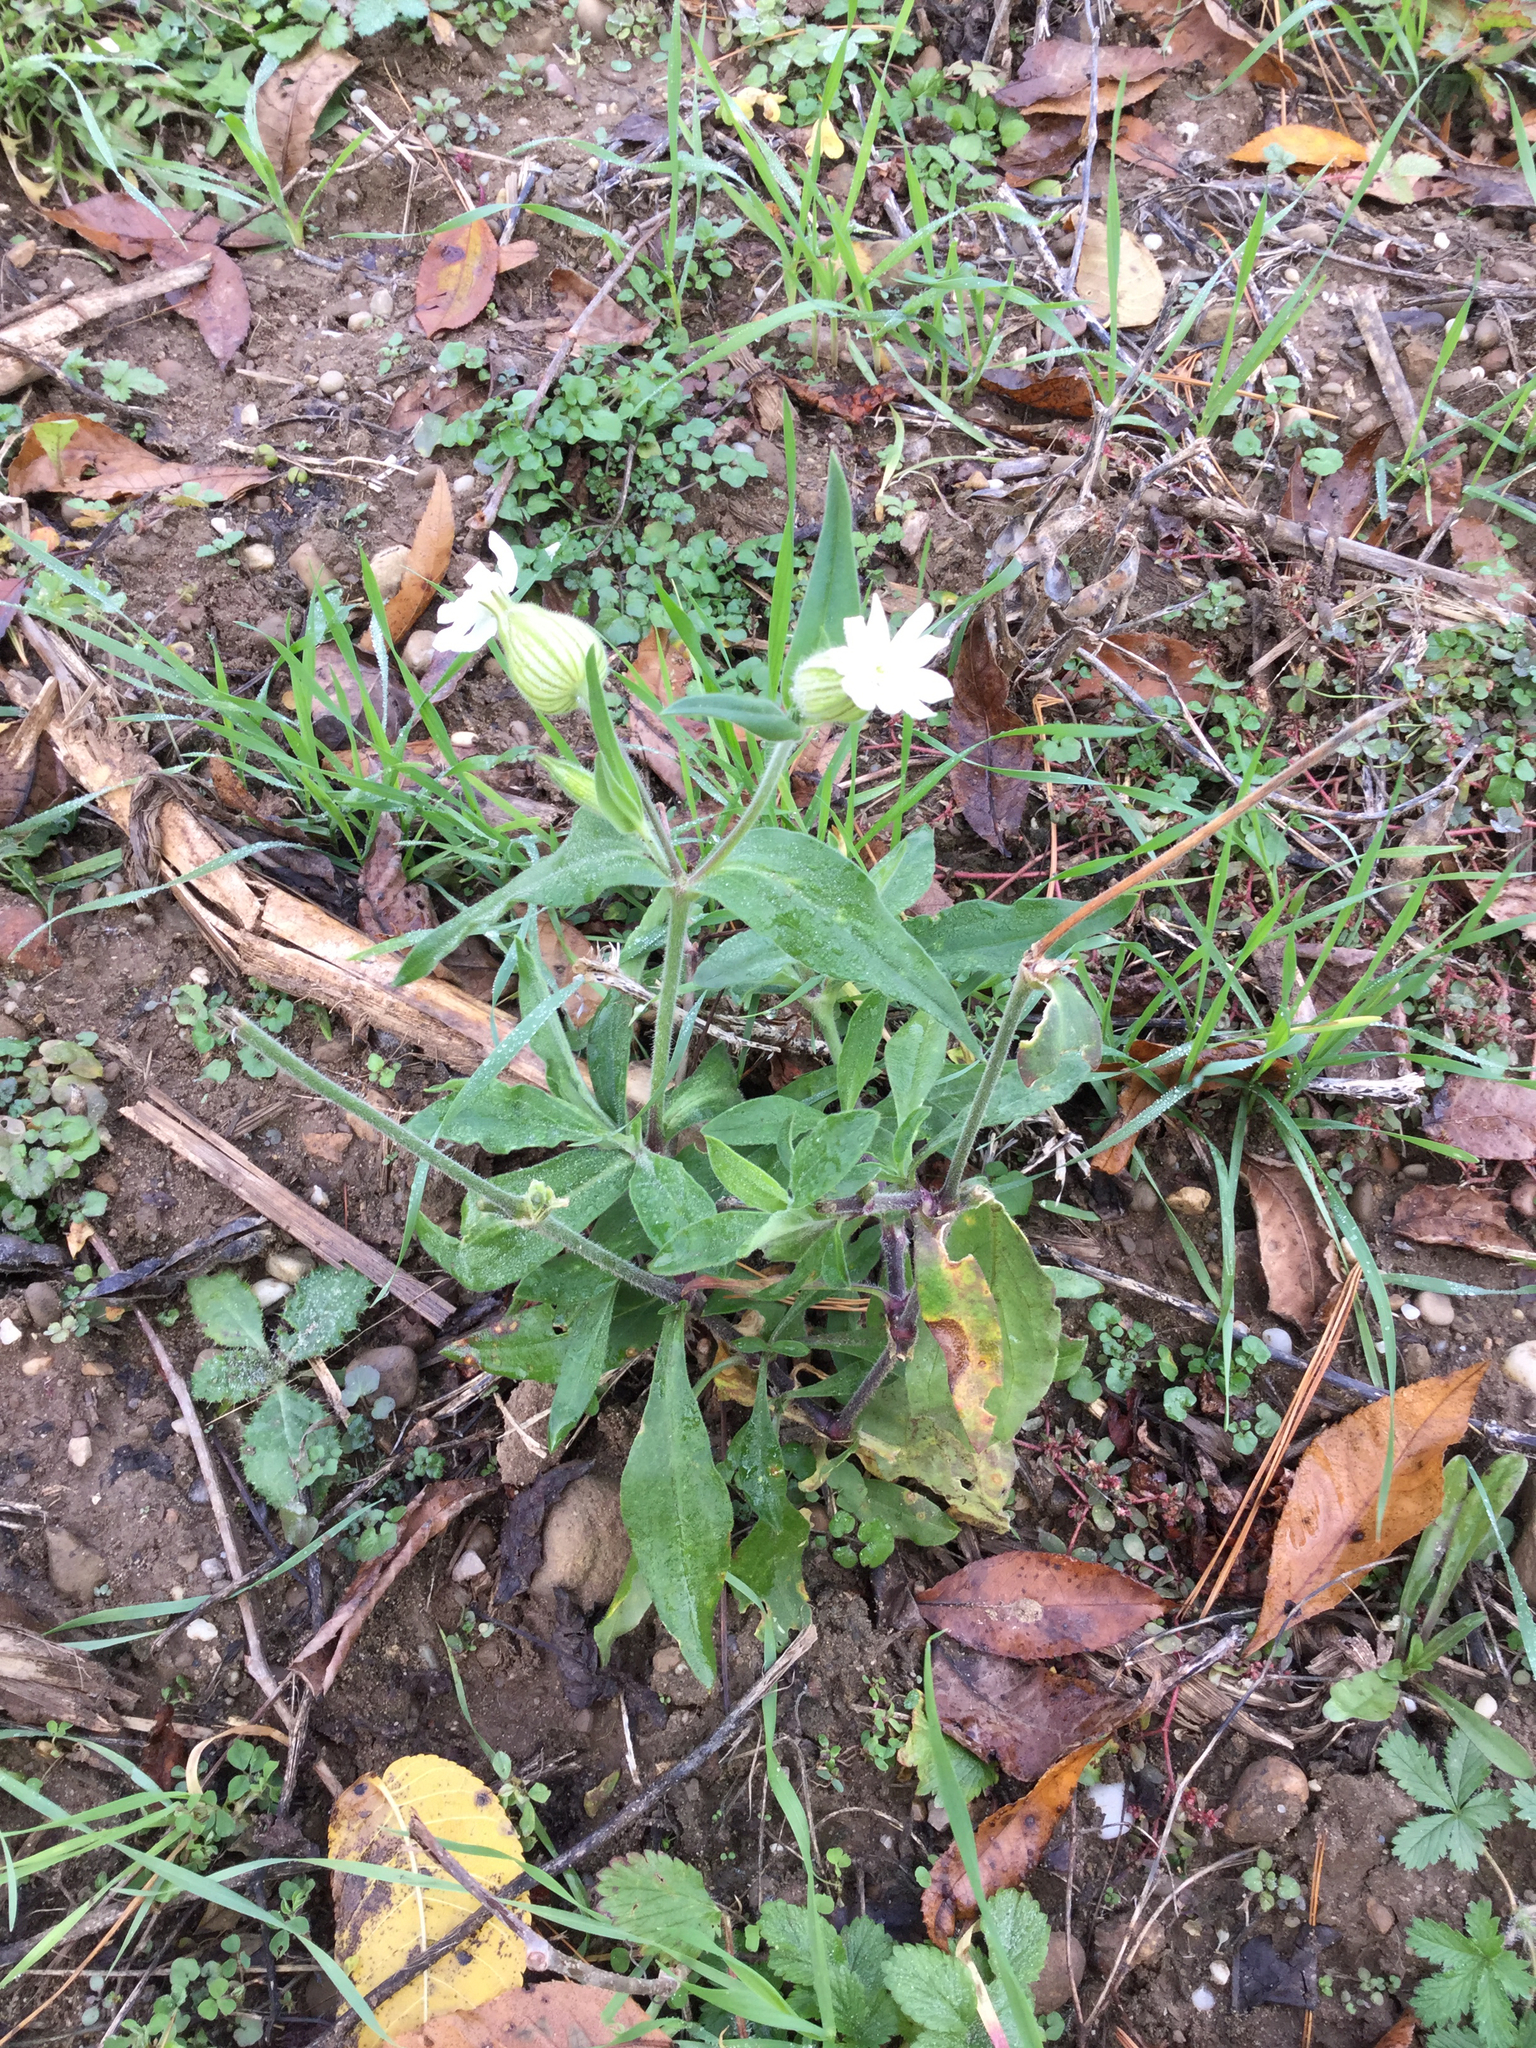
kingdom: Plantae
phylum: Tracheophyta
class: Magnoliopsida
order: Caryophyllales
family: Caryophyllaceae
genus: Silene
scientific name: Silene latifolia
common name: White campion
